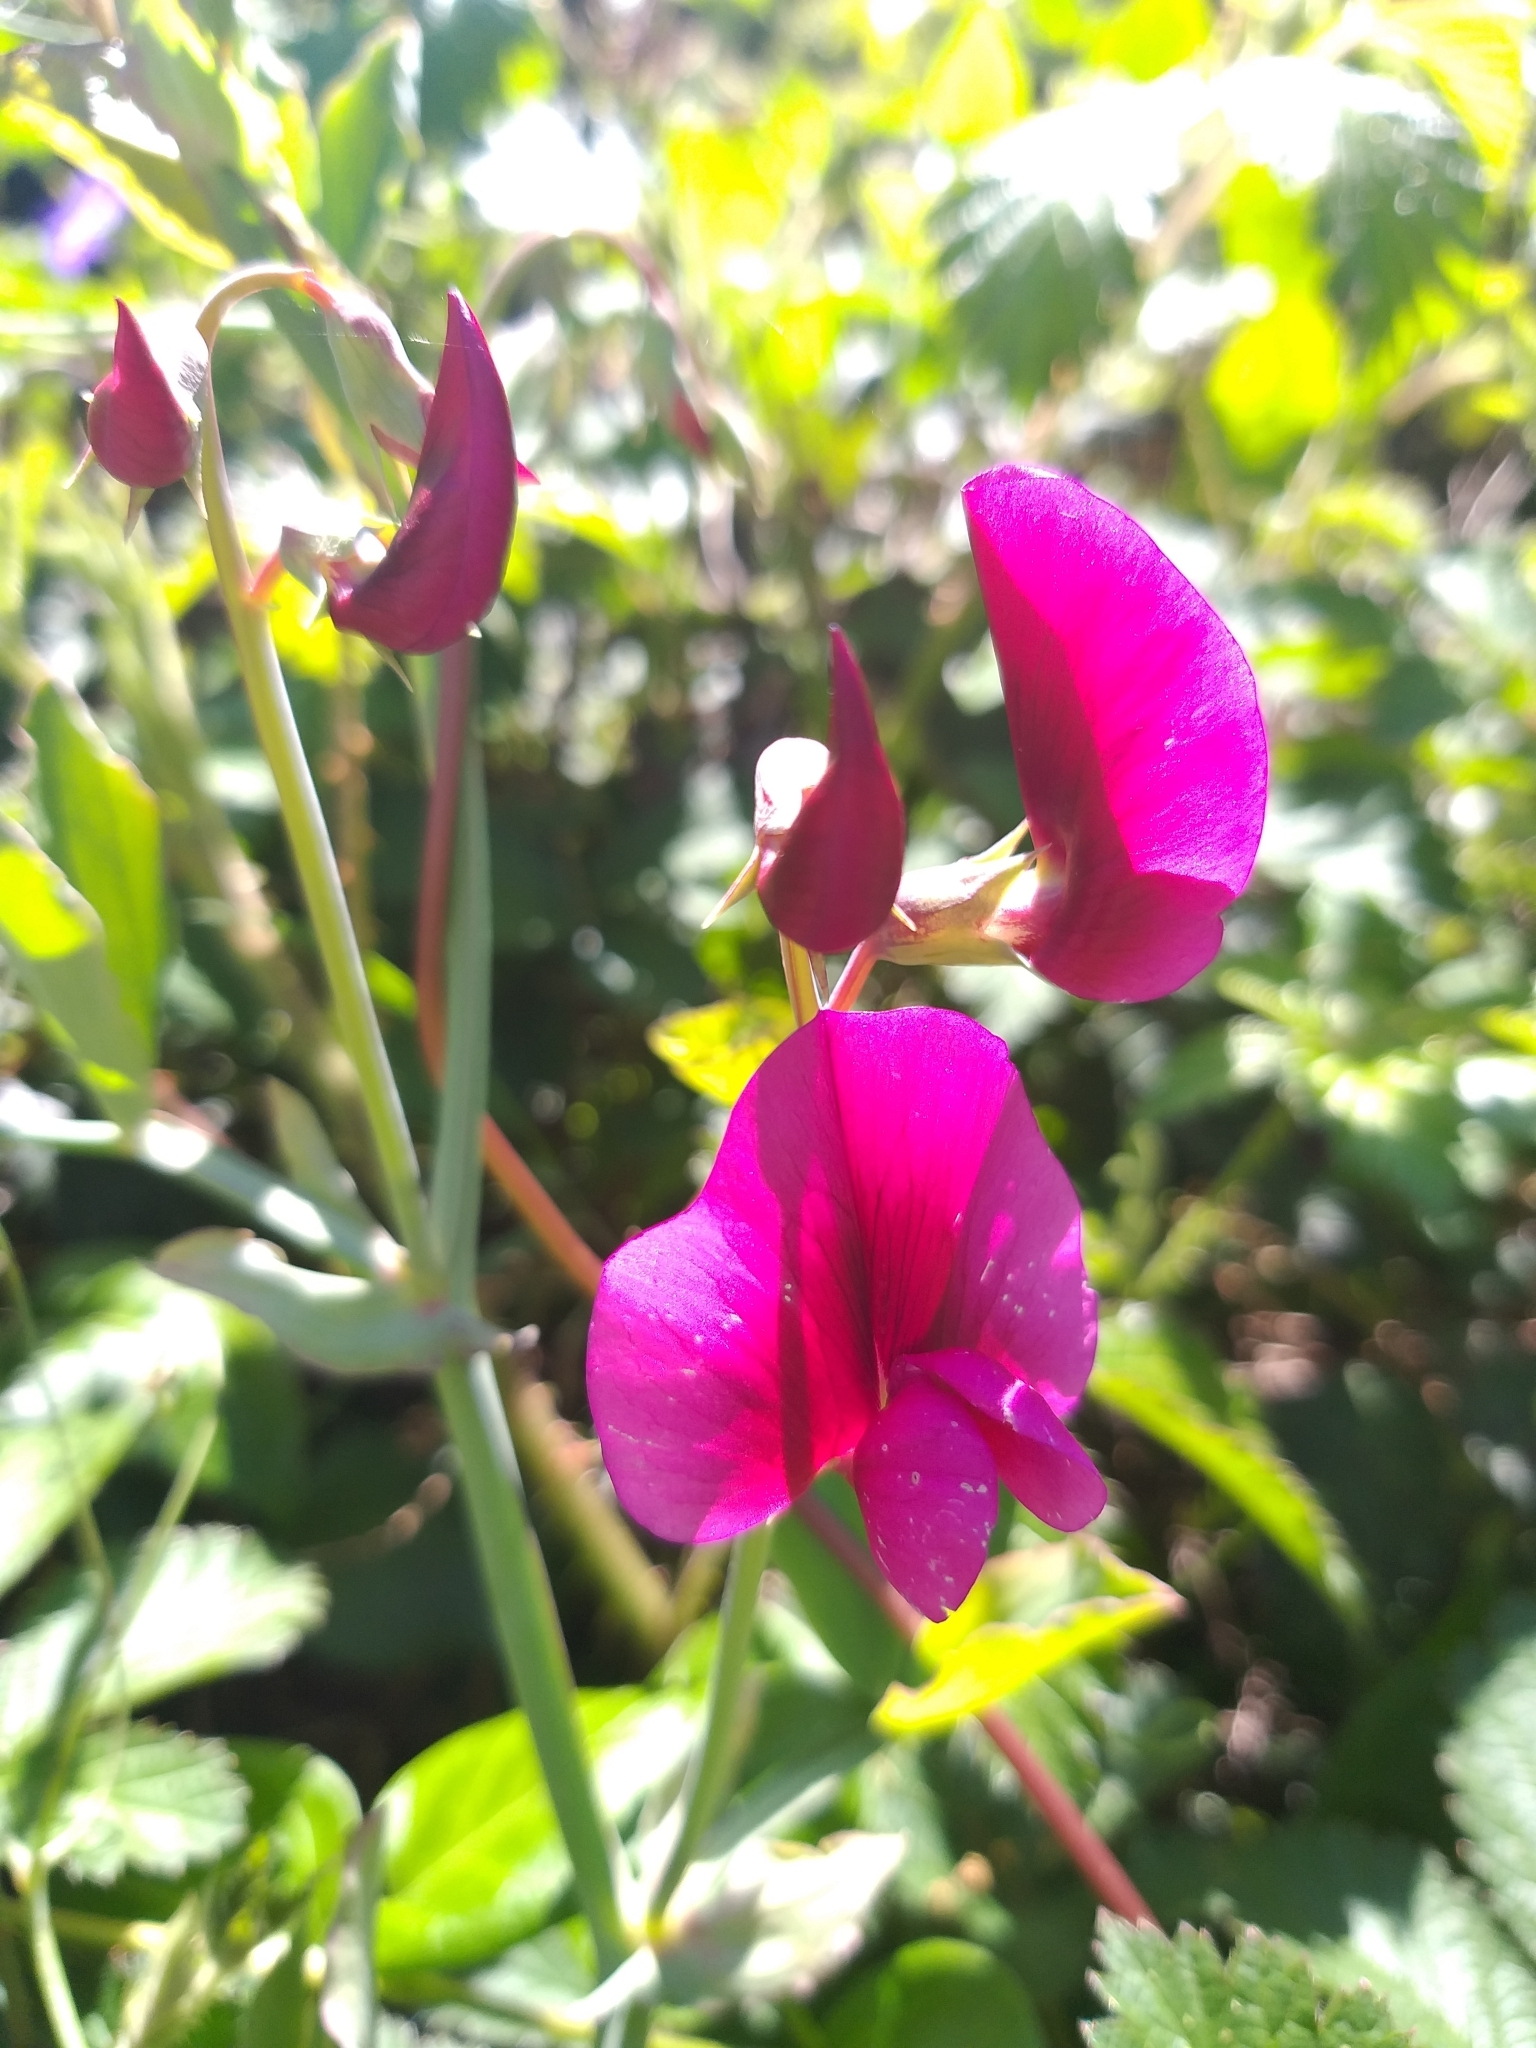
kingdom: Plantae
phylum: Tracheophyta
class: Magnoliopsida
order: Fabales
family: Fabaceae
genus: Lathyrus
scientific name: Lathyrus tingitanus
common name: Tangier pea
